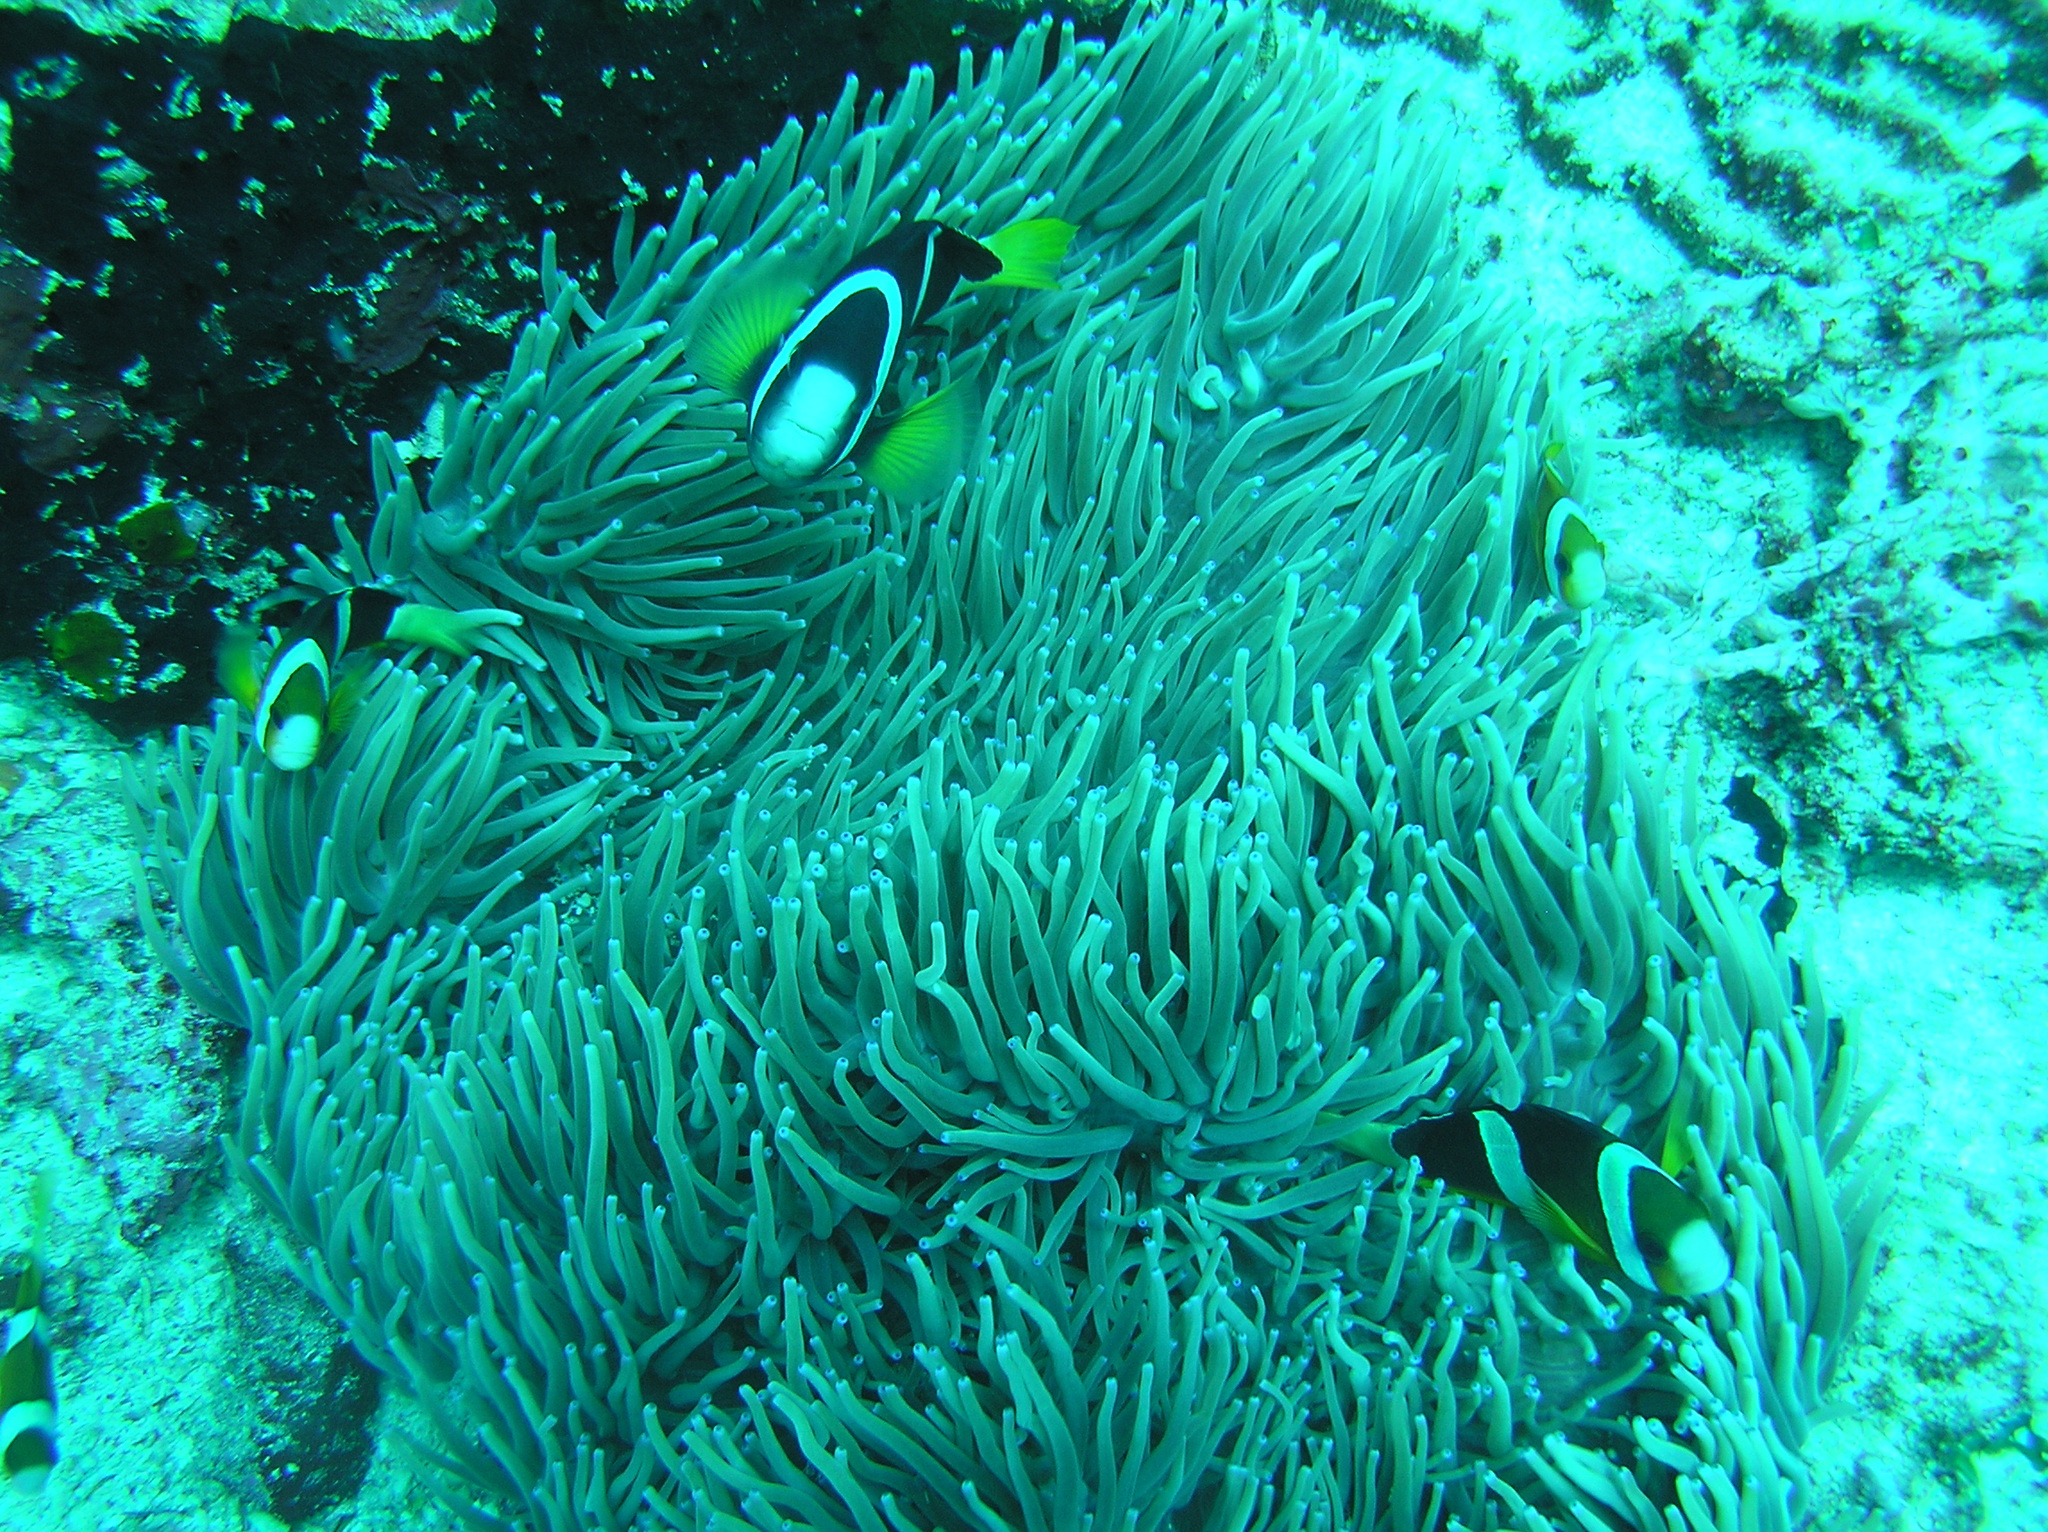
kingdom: Animalia
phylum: Chordata
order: Perciformes
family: Pomacentridae
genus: Amphiprion
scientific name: Amphiprion clarkii
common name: Clark's anemonefish
